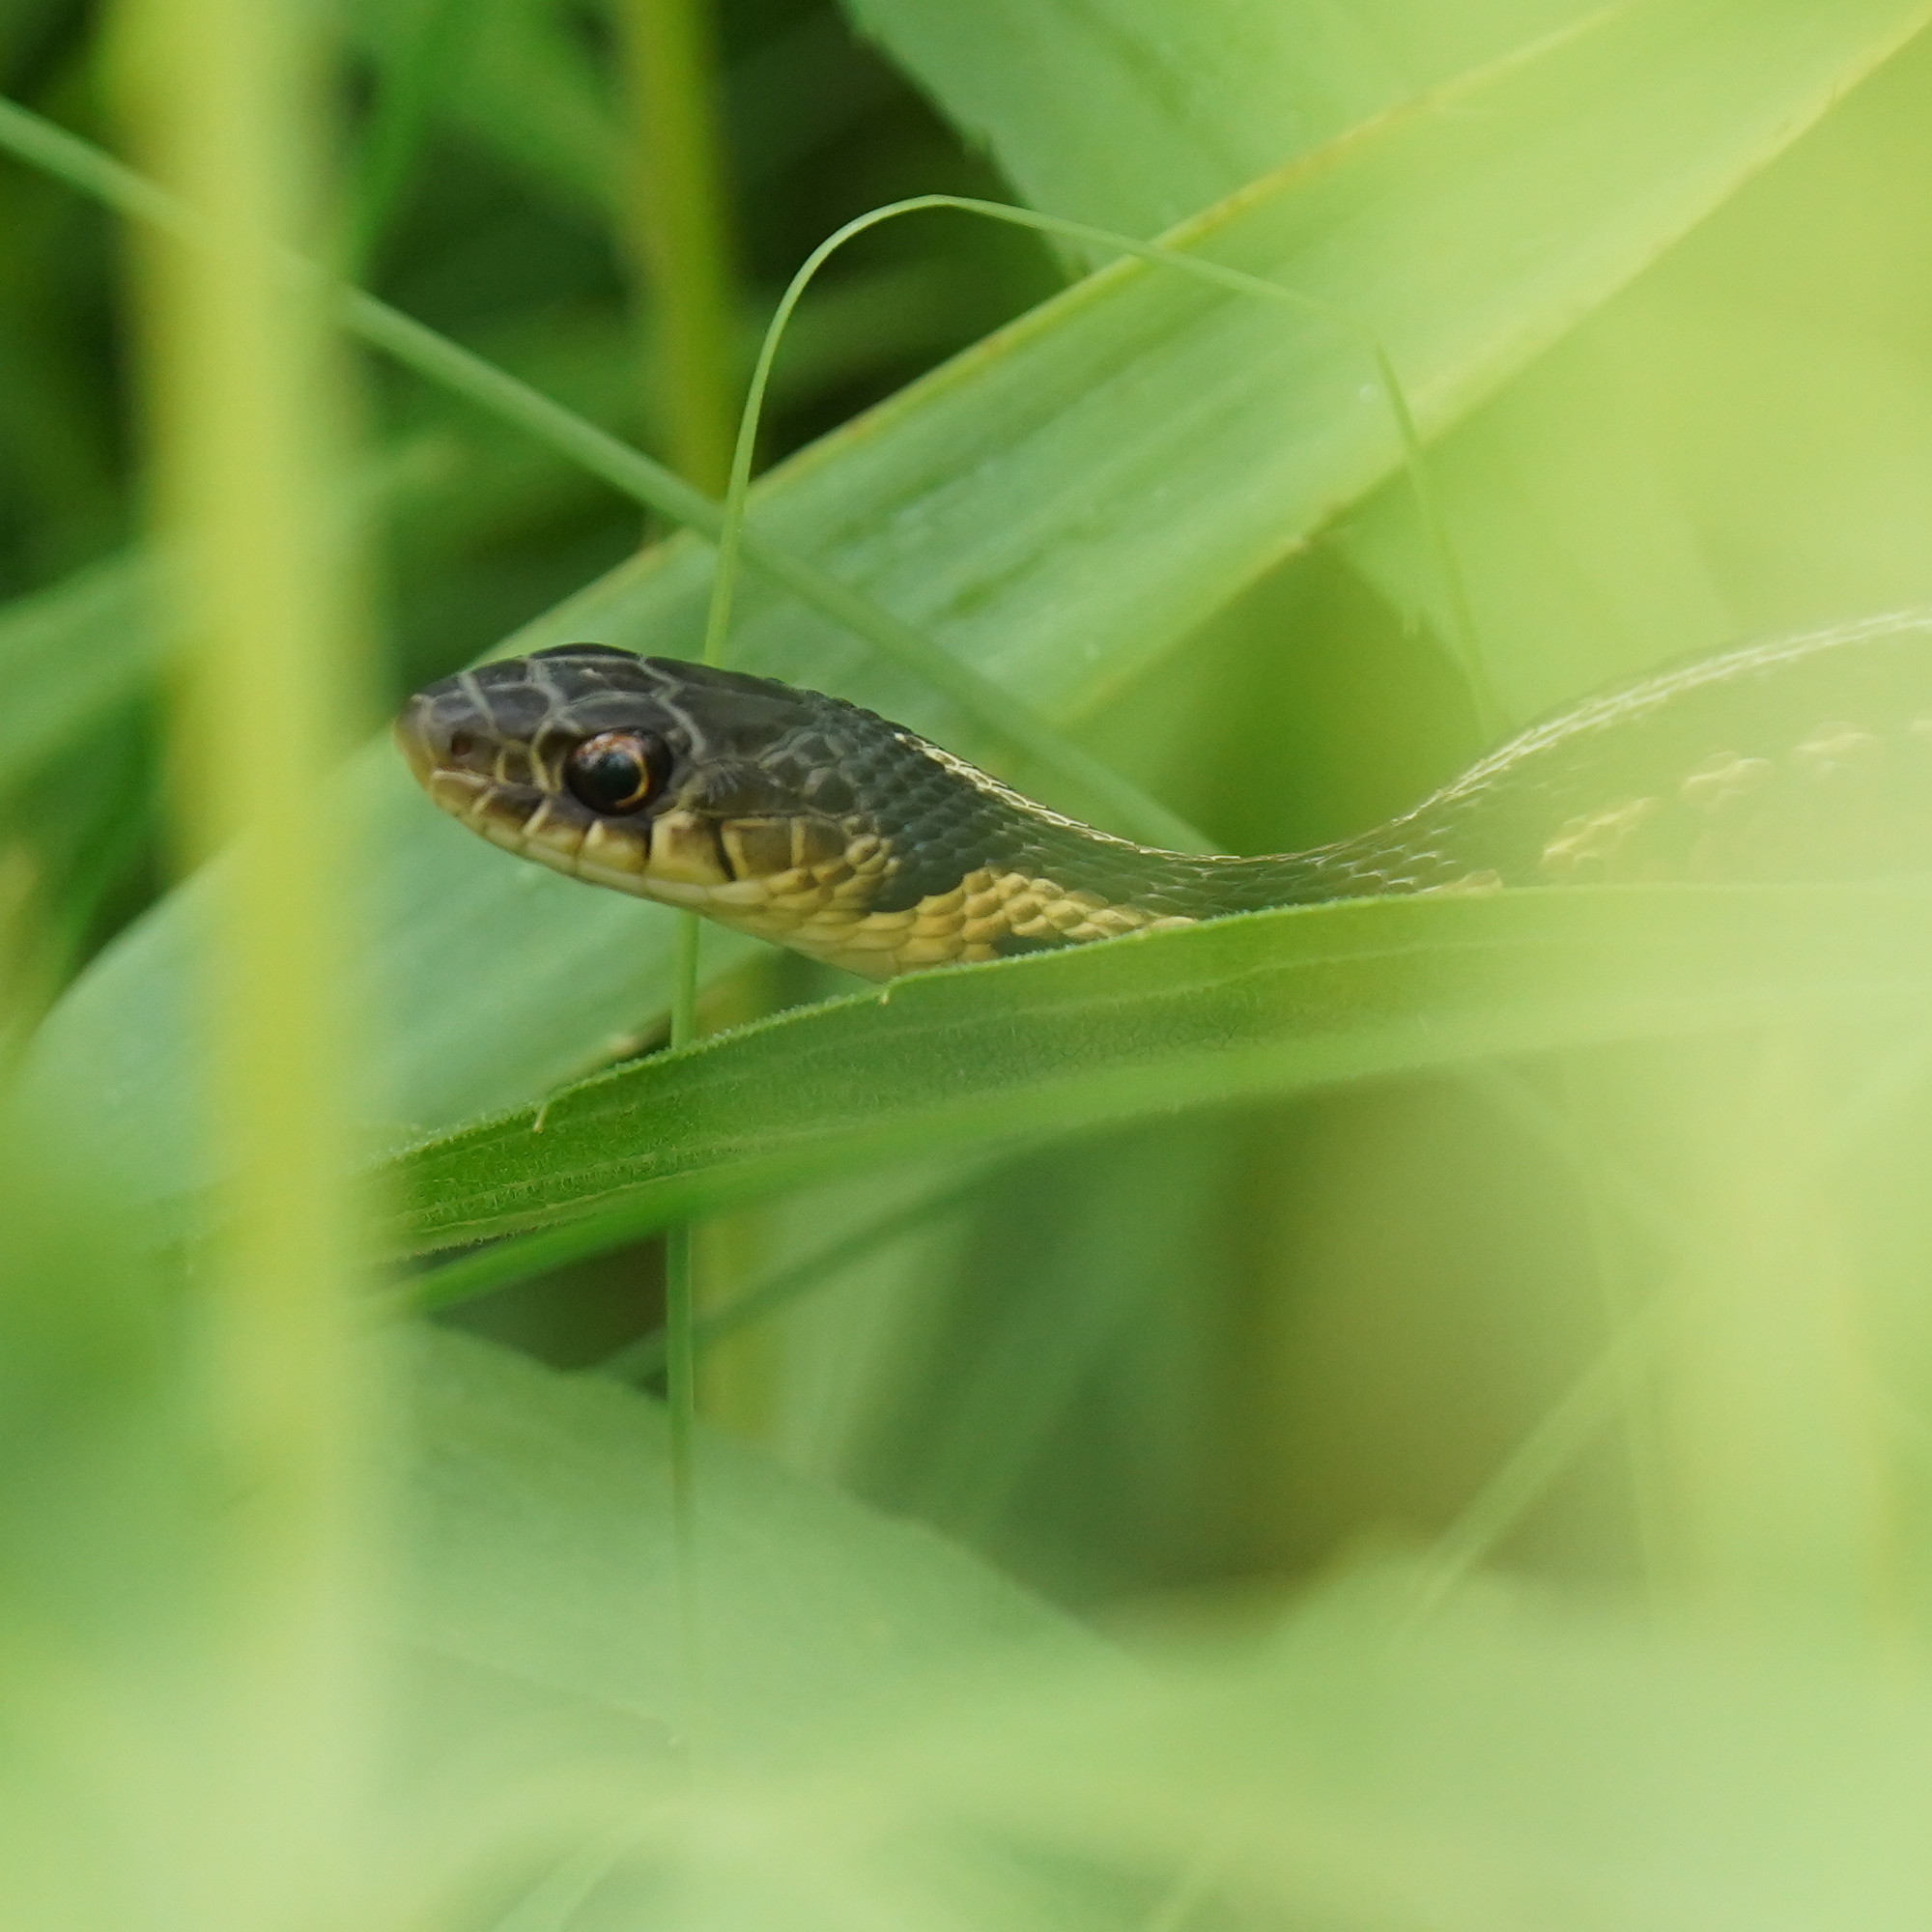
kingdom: Animalia
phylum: Chordata
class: Squamata
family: Colubridae
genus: Thamnophis
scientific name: Thamnophis sirtalis
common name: Common garter snake
